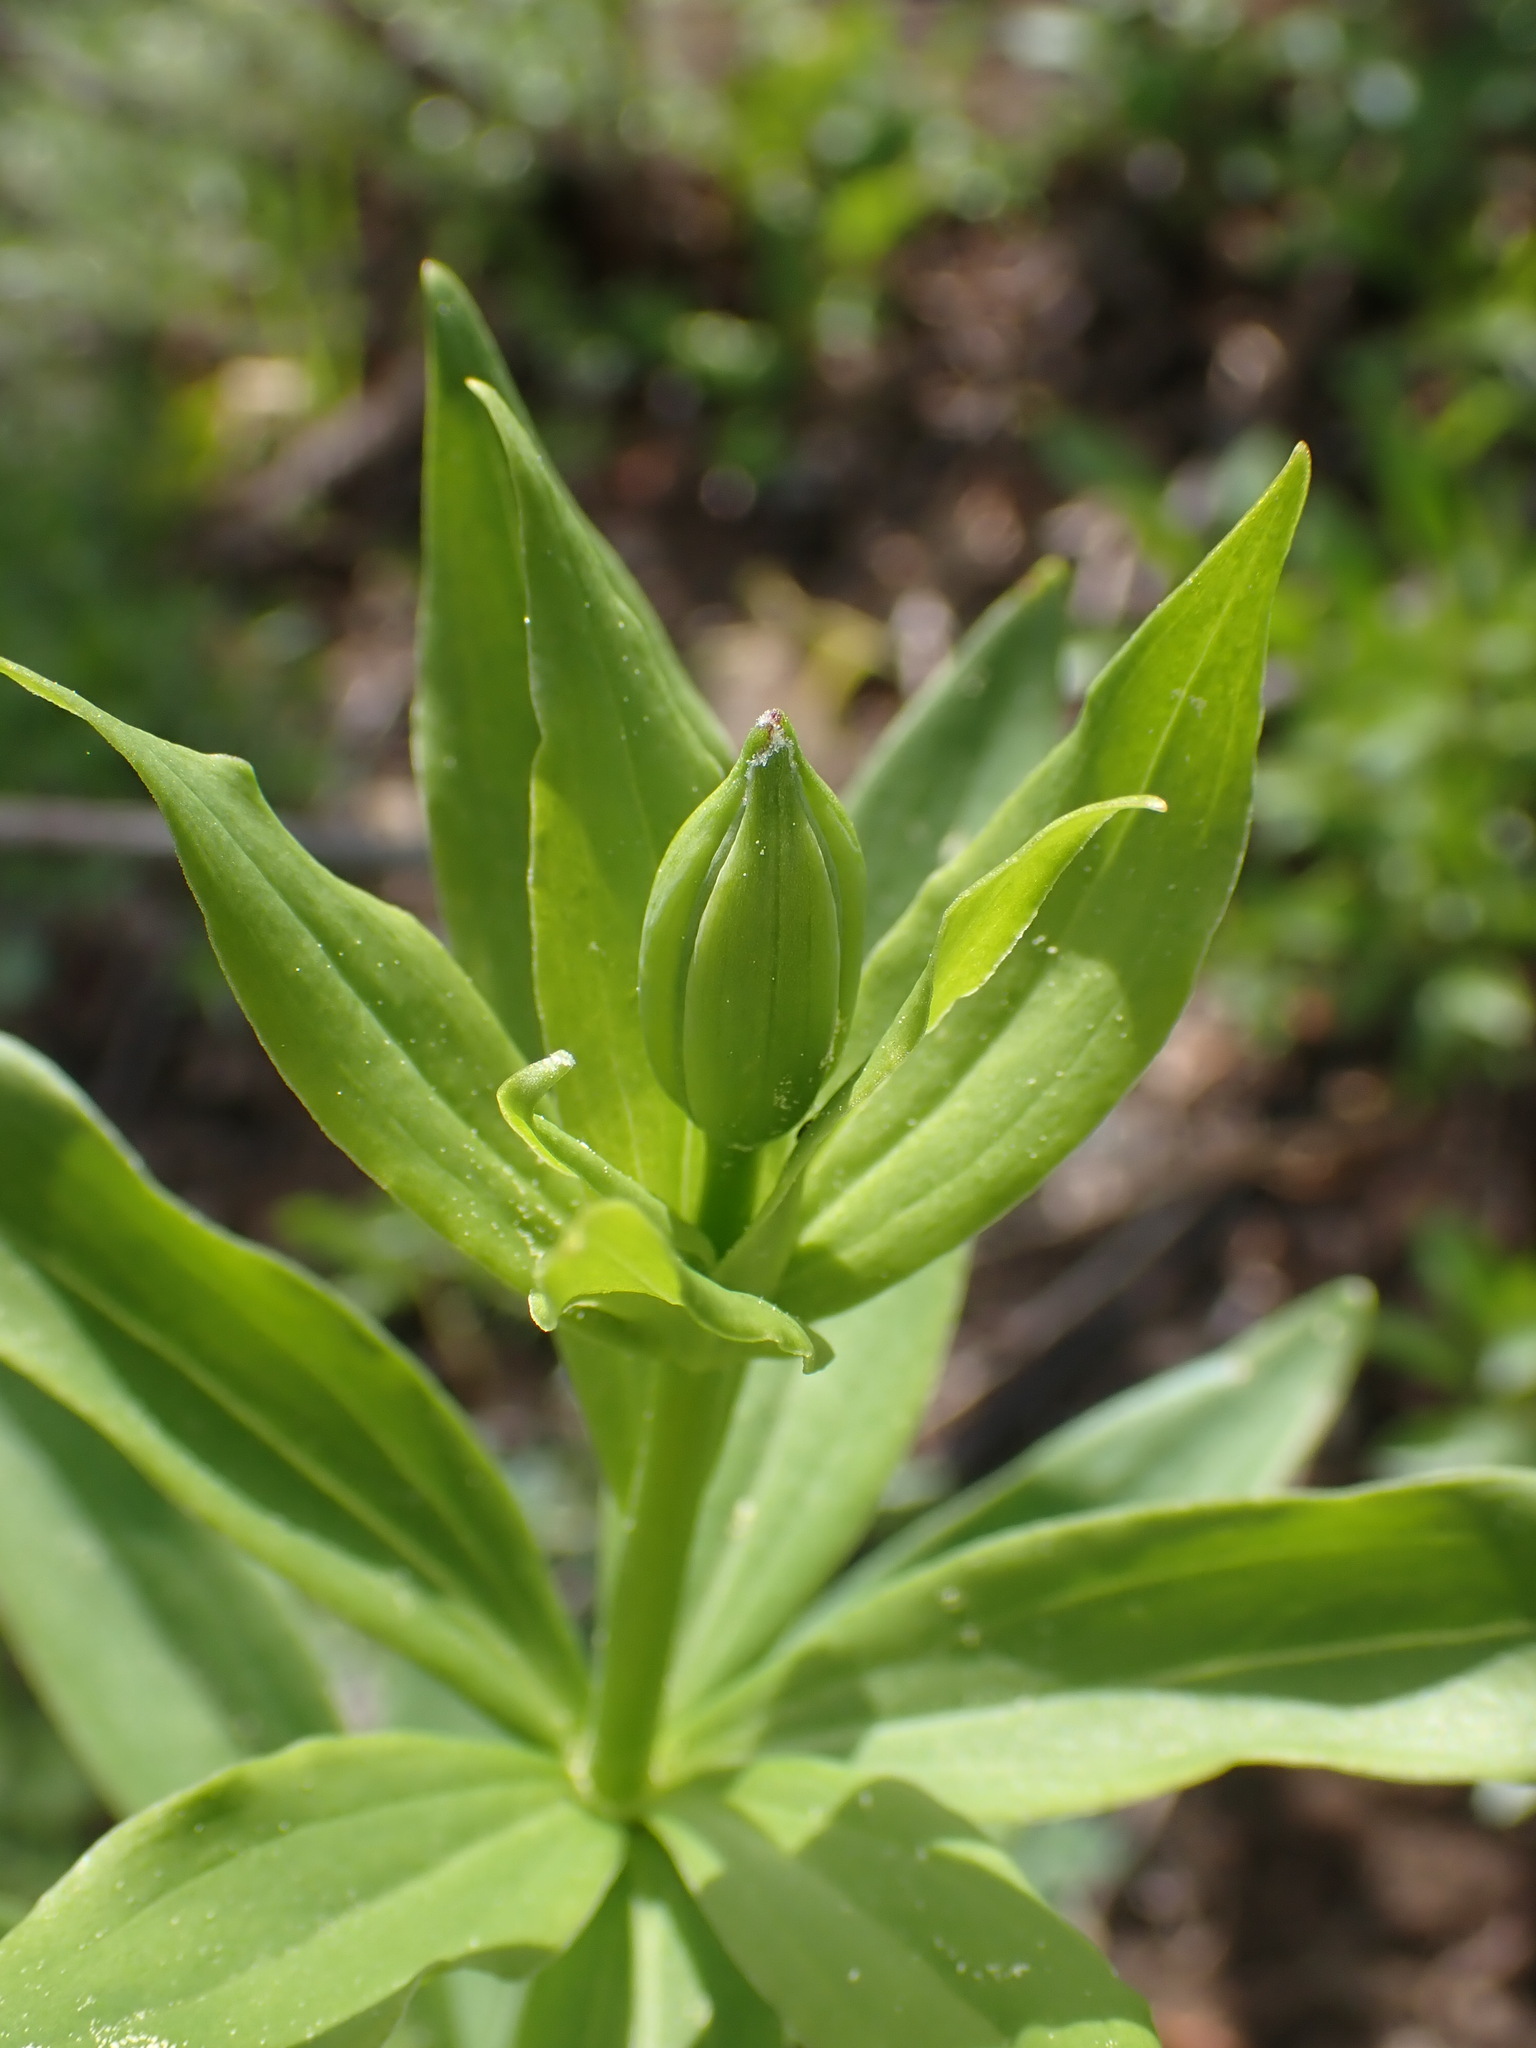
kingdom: Plantae
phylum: Tracheophyta
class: Liliopsida
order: Liliales
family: Liliaceae
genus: Lilium
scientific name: Lilium columbianum
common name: Columbia lily
